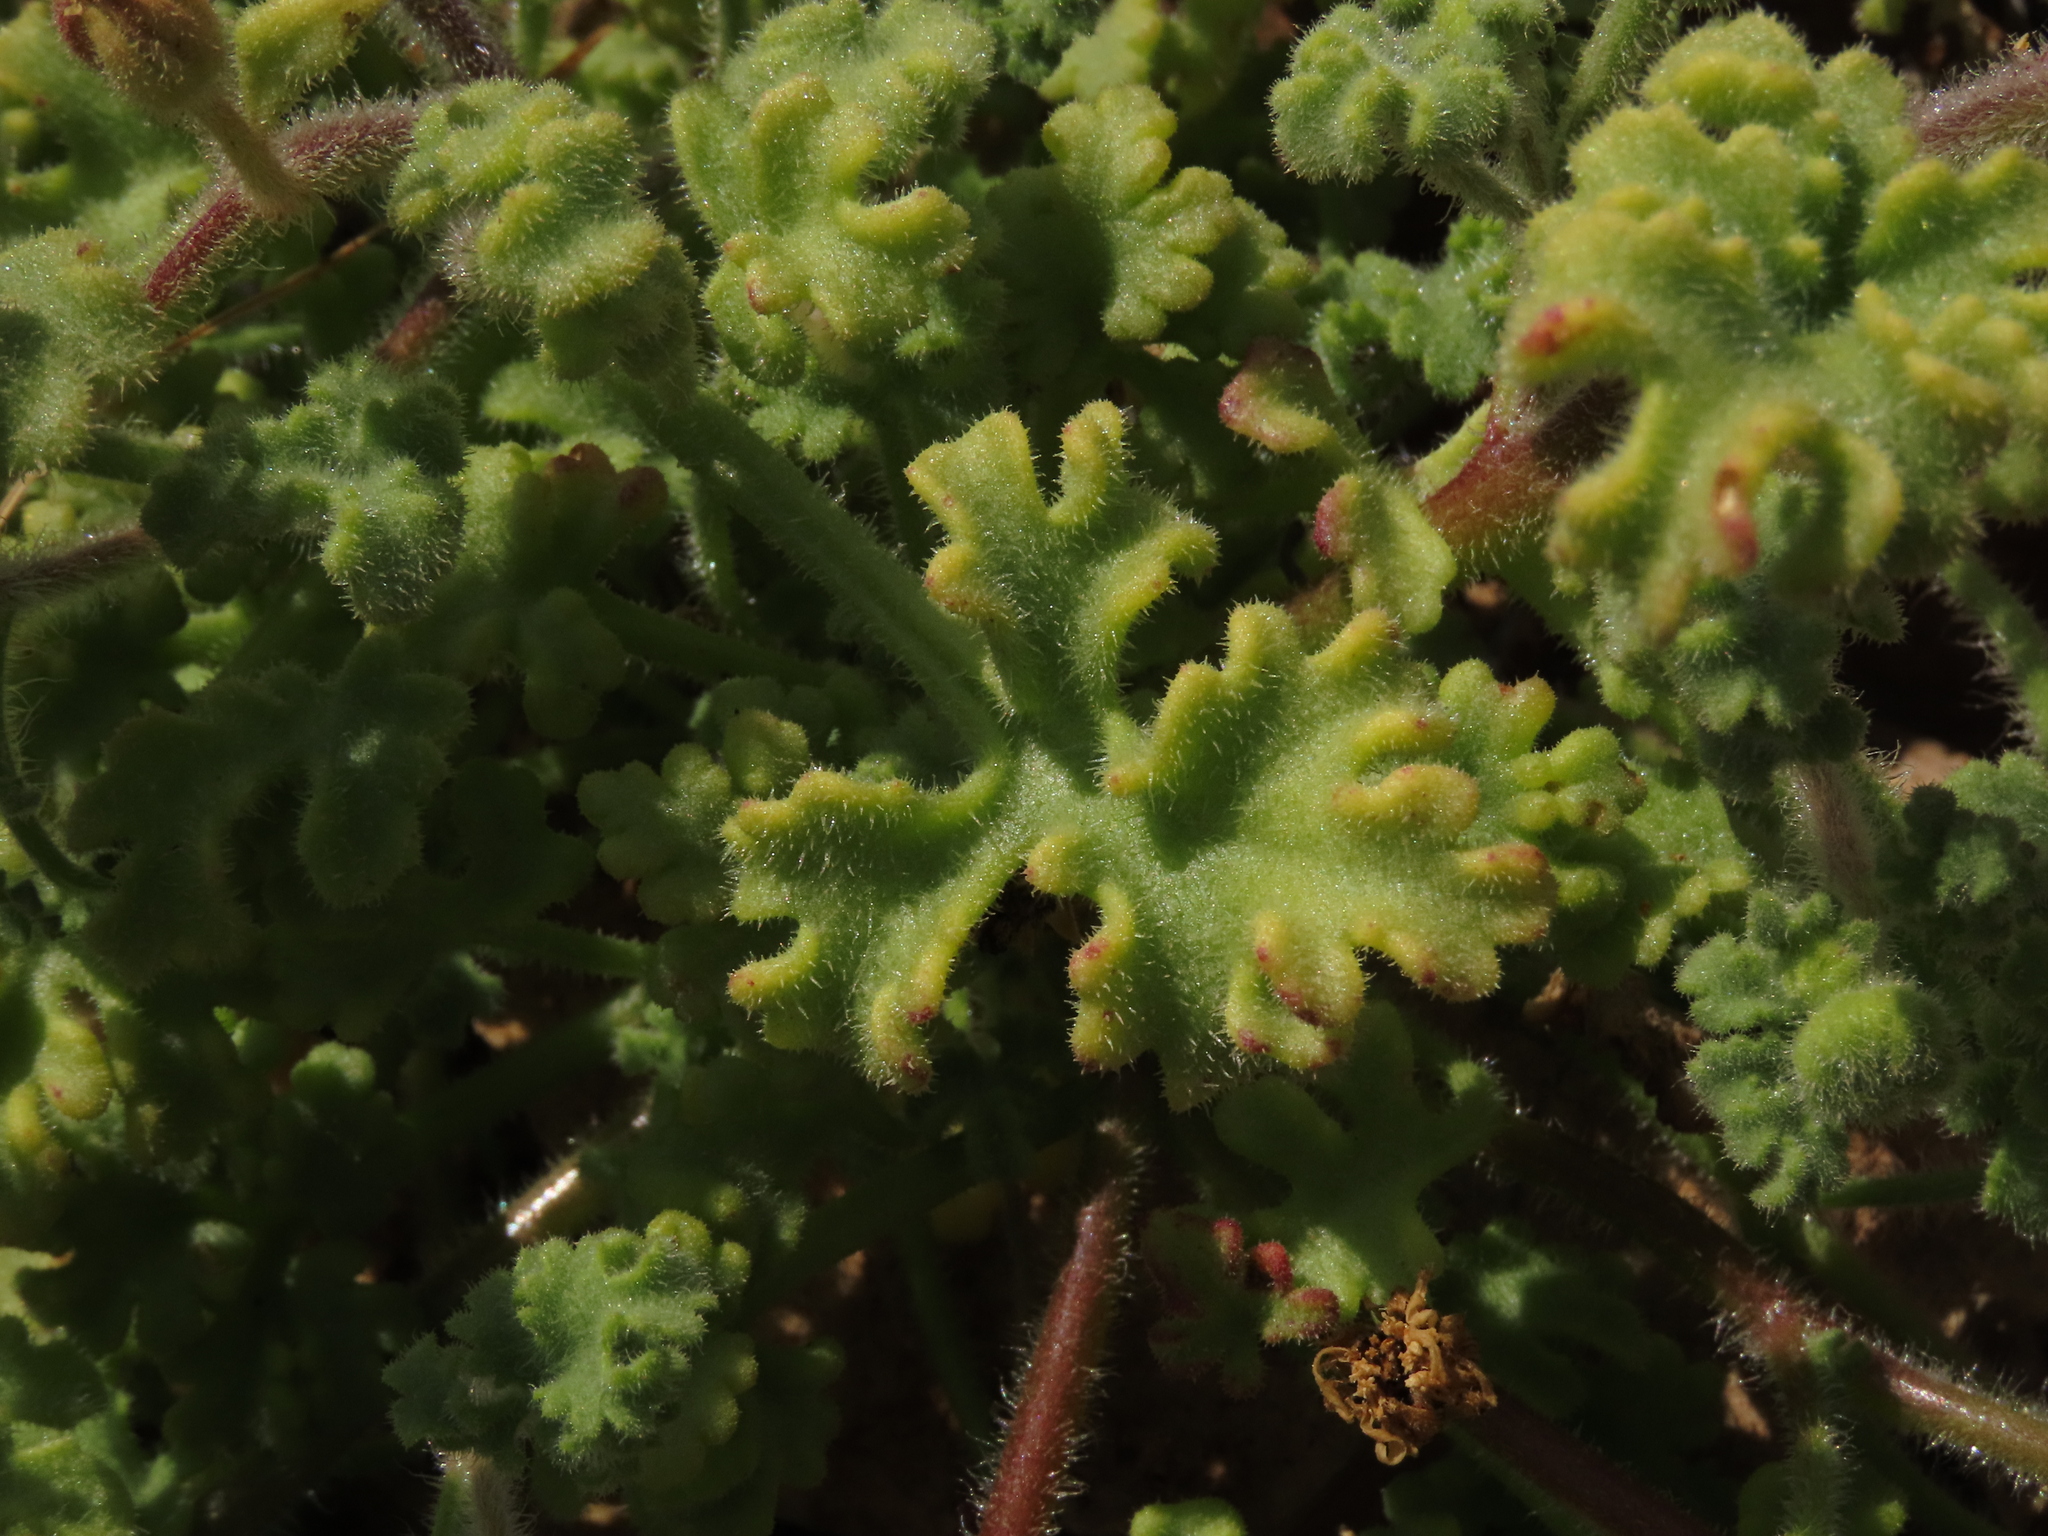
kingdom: Plantae
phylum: Tracheophyta
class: Magnoliopsida
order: Asterales
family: Asteraceae
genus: Laphamia
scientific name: Laphamia emoryi
